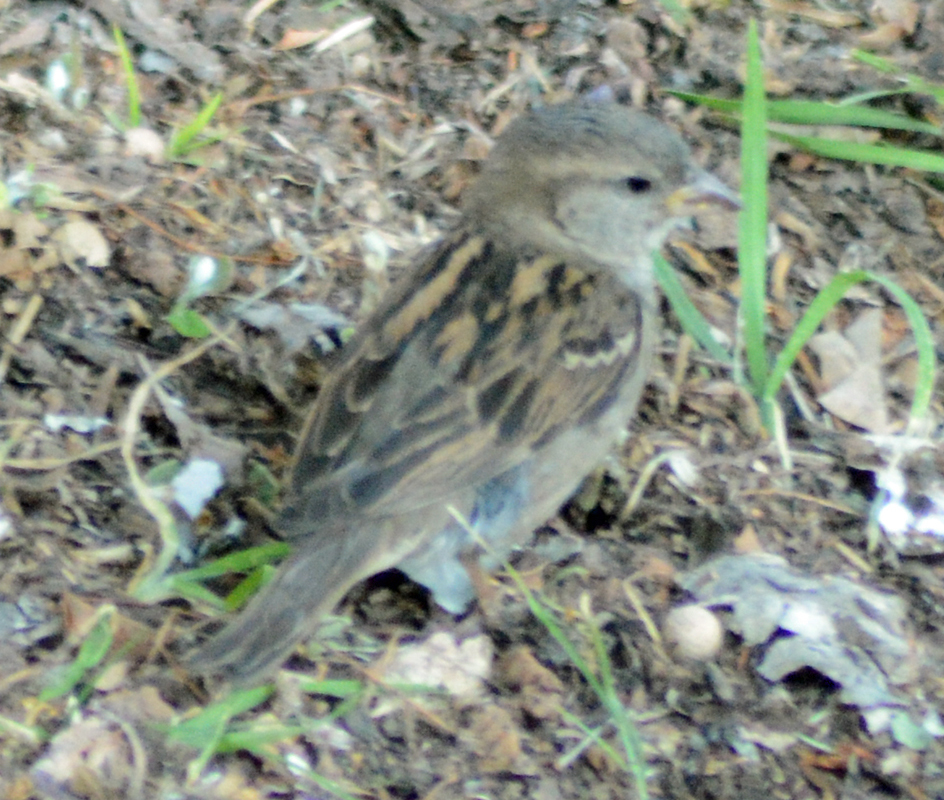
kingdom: Animalia
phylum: Chordata
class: Aves
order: Passeriformes
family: Passeridae
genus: Passer
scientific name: Passer domesticus
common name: House sparrow
